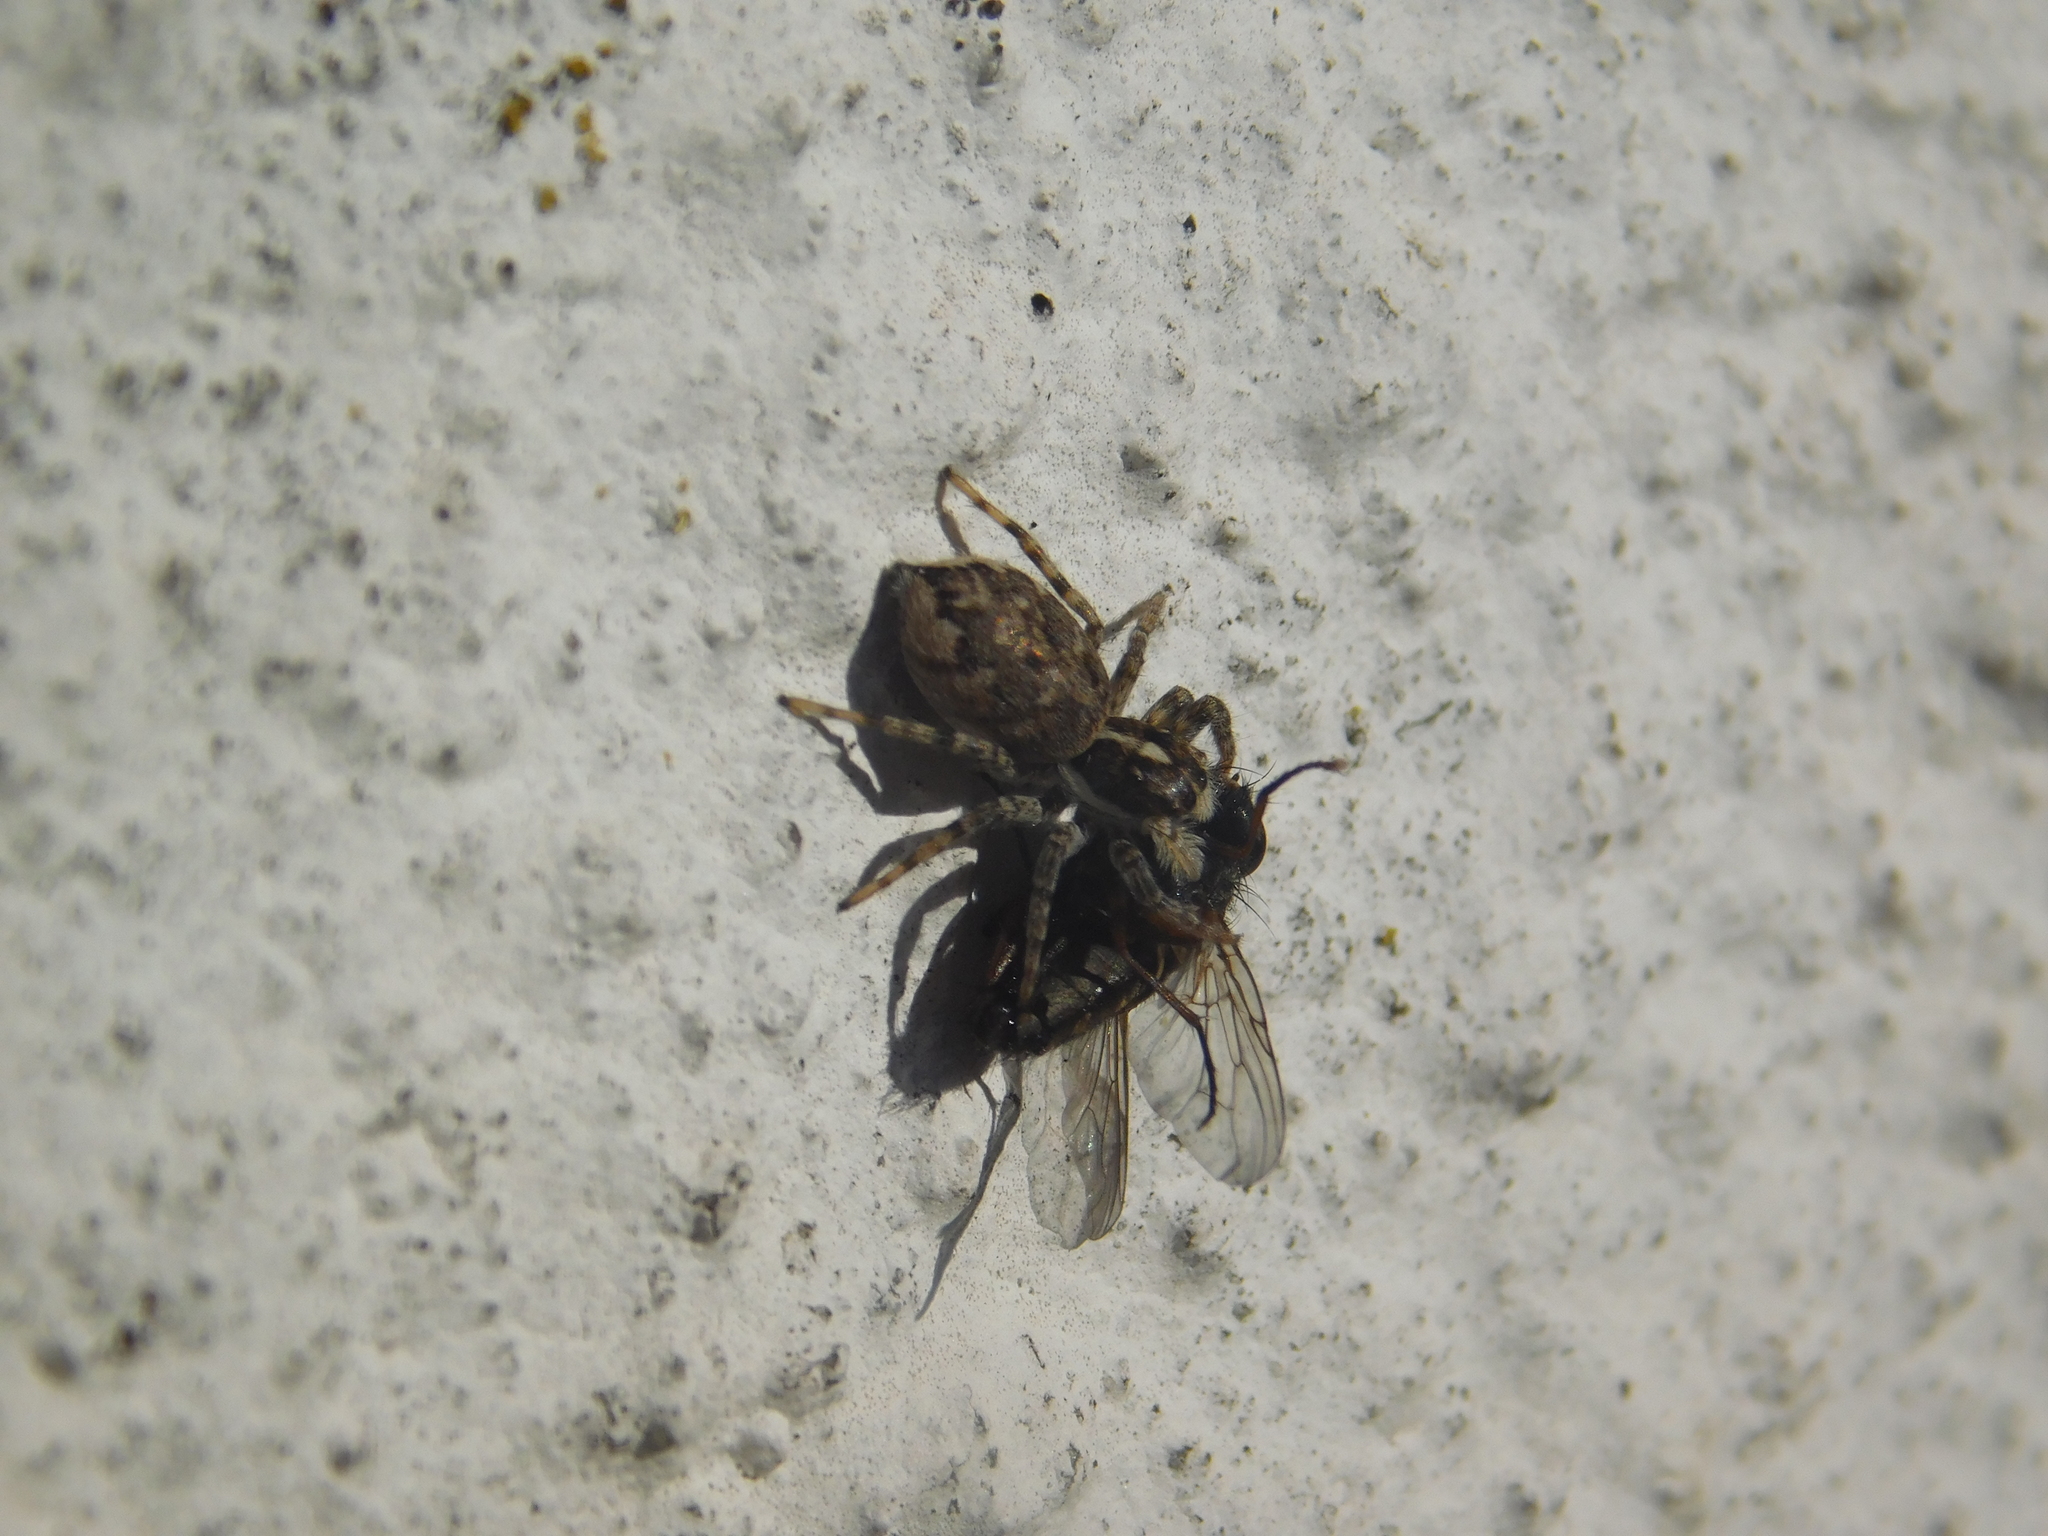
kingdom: Animalia
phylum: Arthropoda
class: Arachnida
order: Araneae
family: Salticidae
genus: Menemerus
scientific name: Menemerus semilimbatus
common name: Jumping spider
